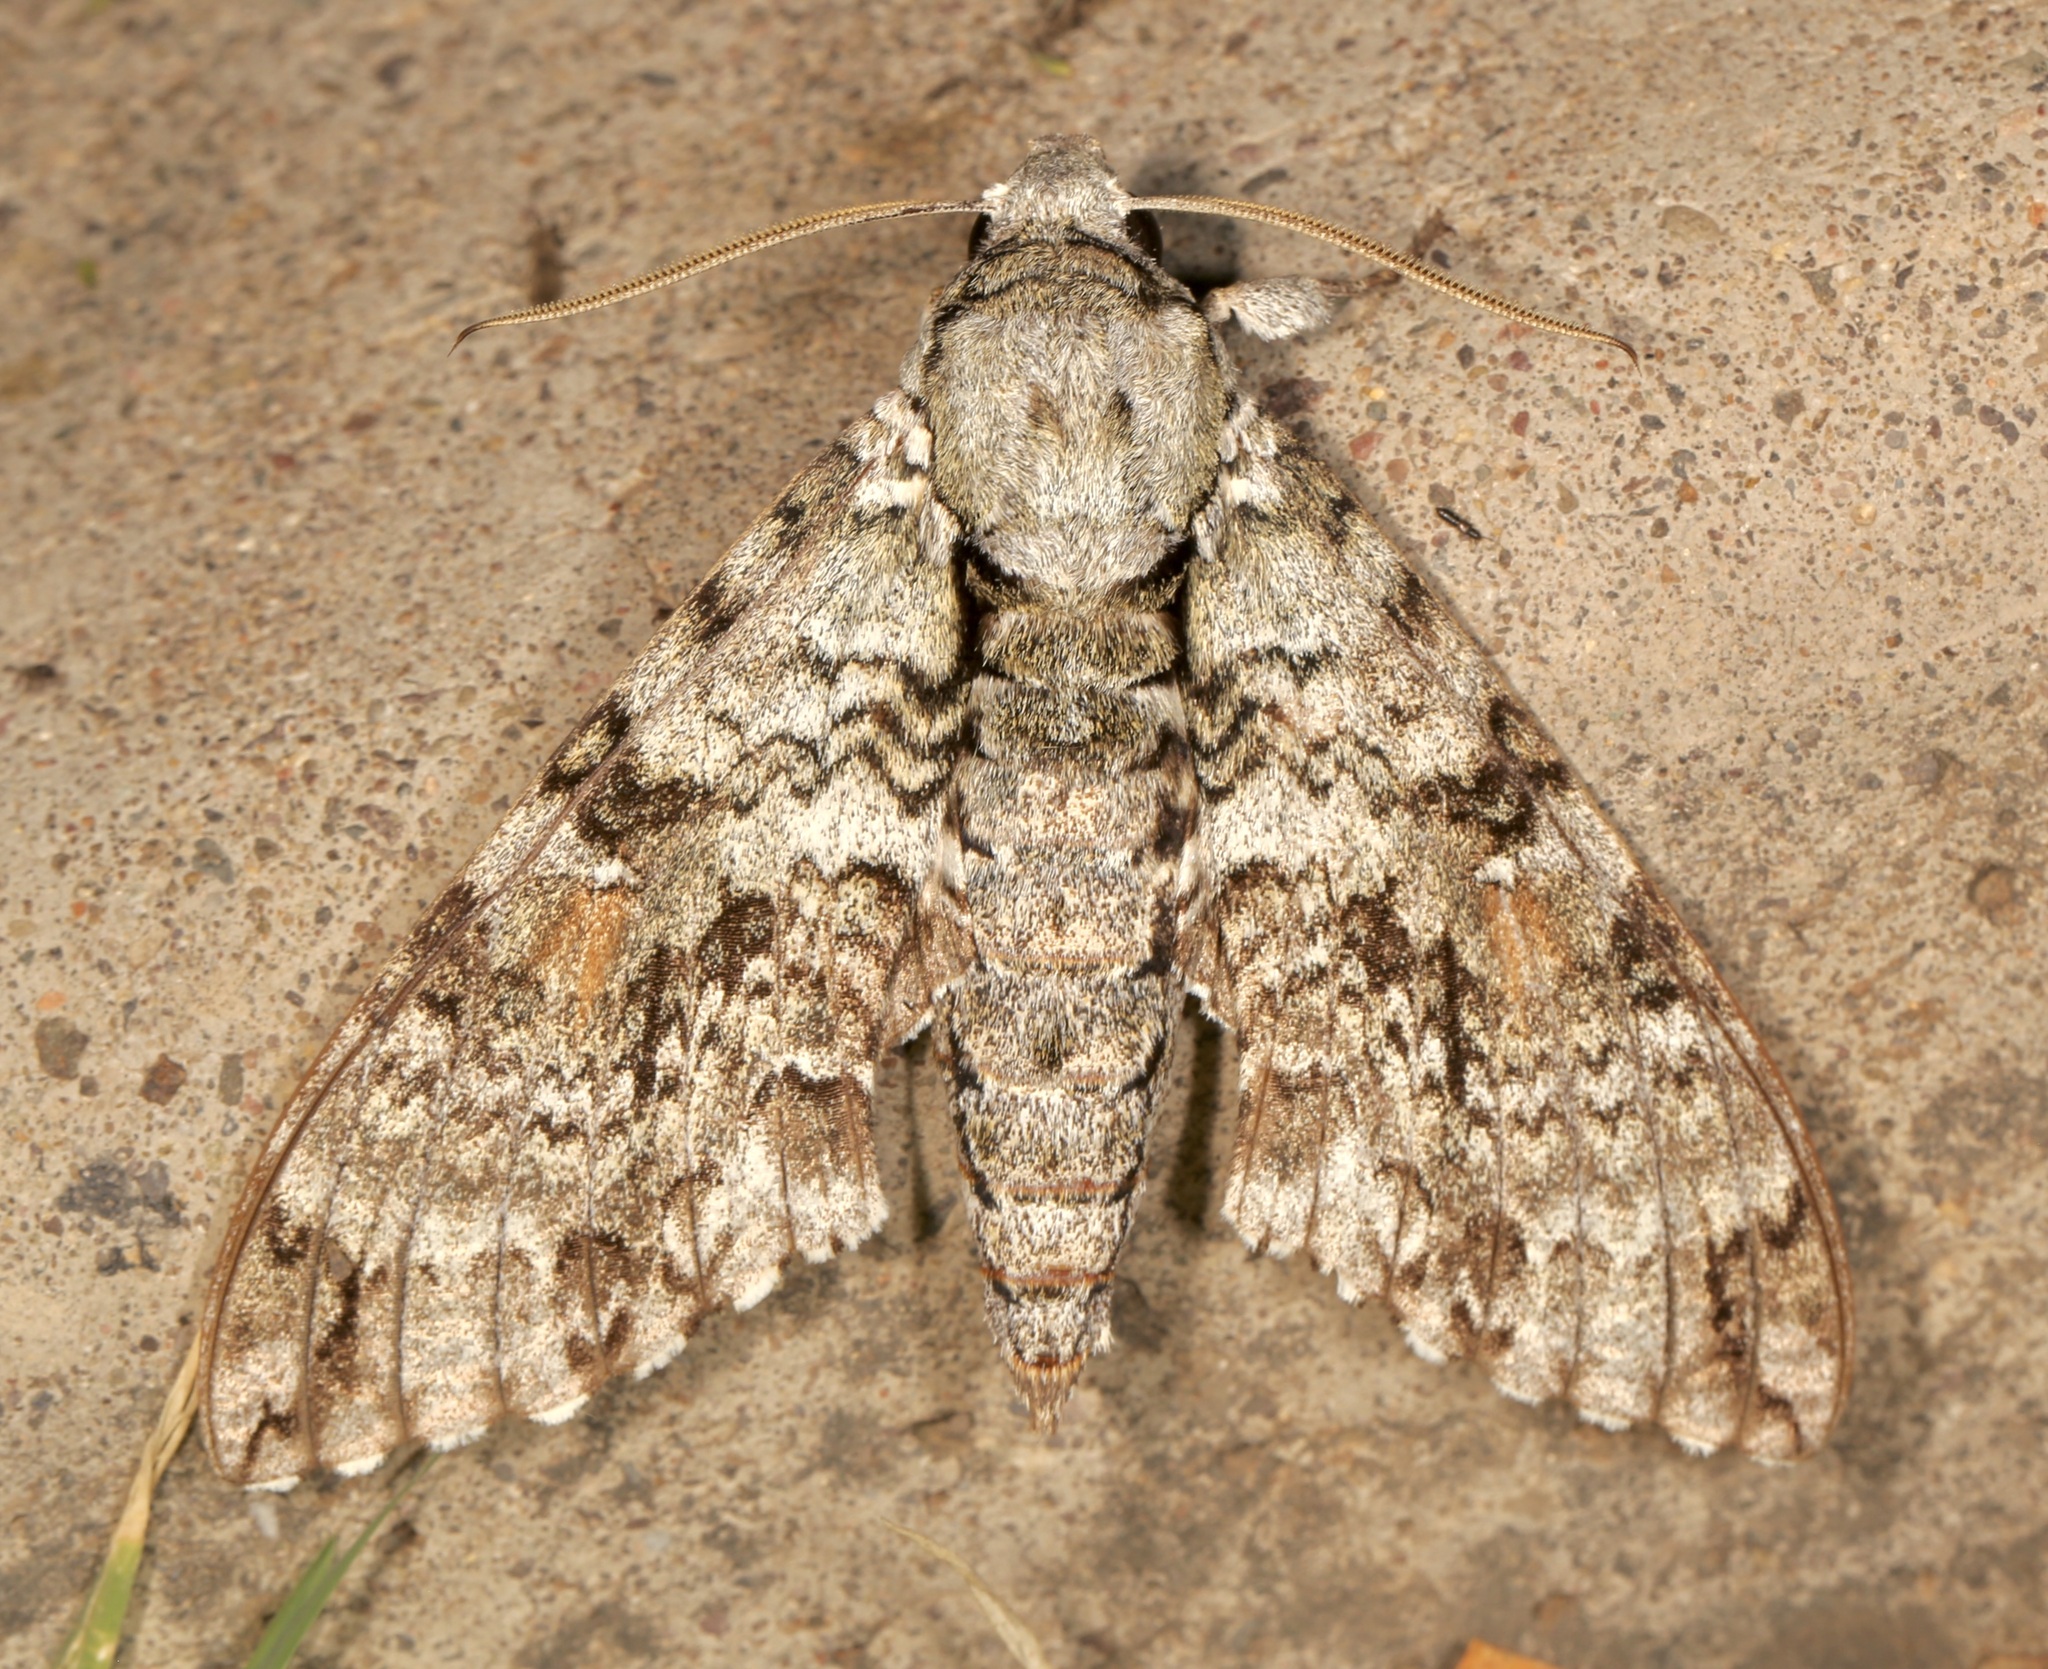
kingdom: Animalia
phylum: Arthropoda
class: Insecta
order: Lepidoptera
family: Sphingidae
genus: Manduca
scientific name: Manduca florestan
